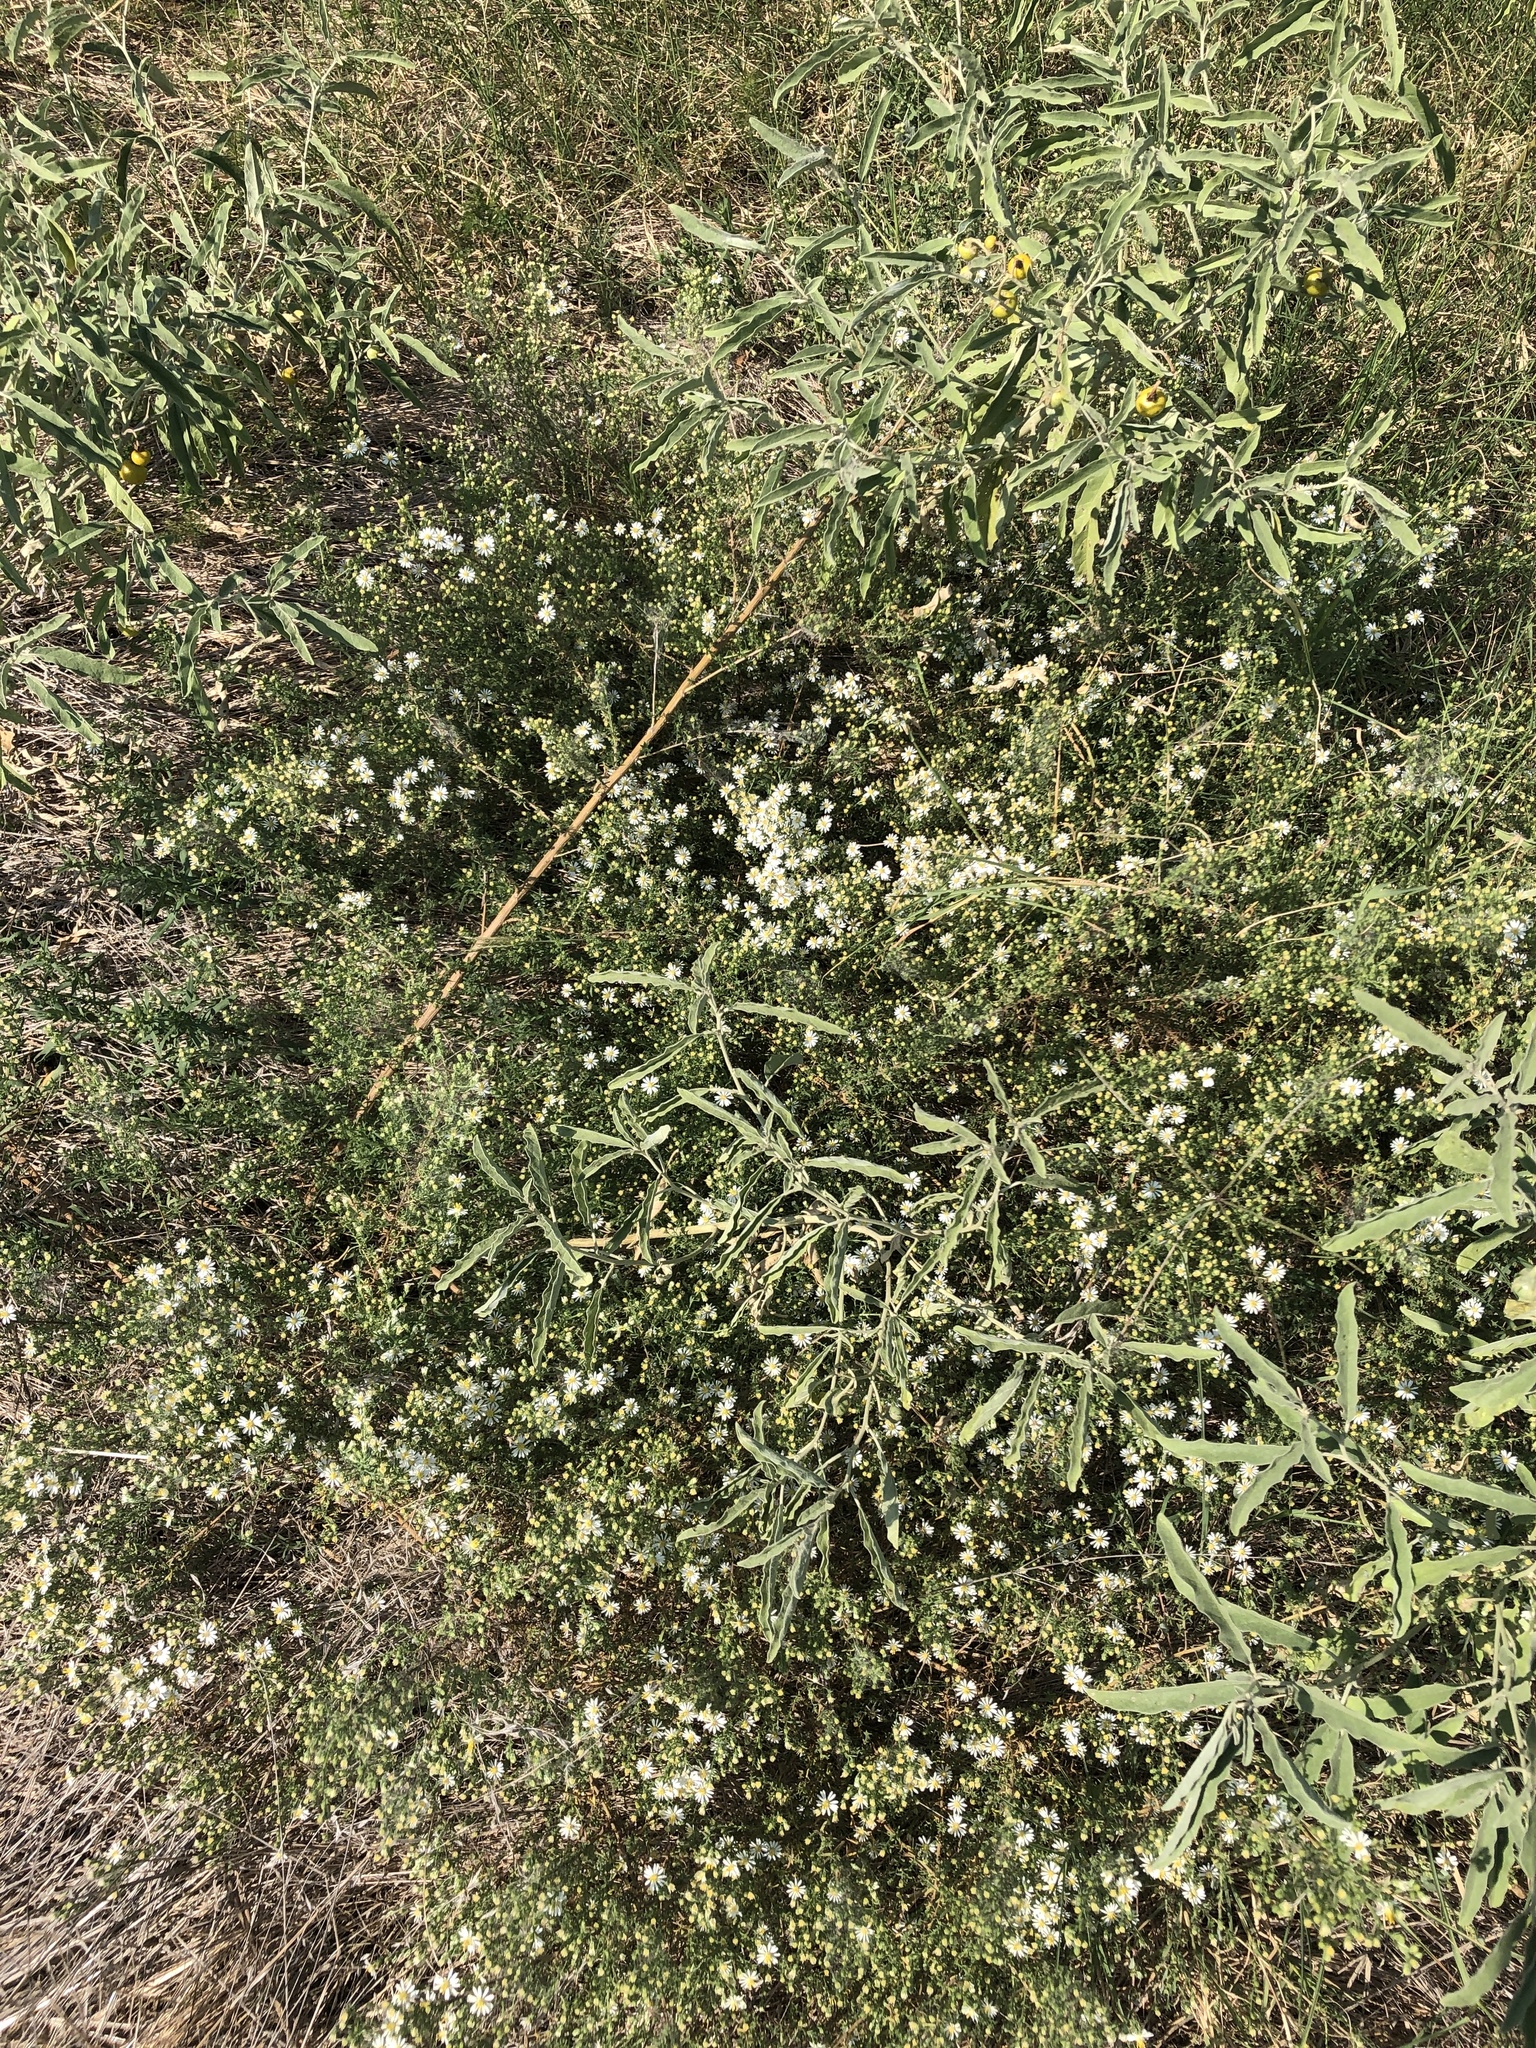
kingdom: Plantae
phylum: Tracheophyta
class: Magnoliopsida
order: Asterales
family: Asteraceae
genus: Symphyotrichum
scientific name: Symphyotrichum ericoides
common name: Heath aster
